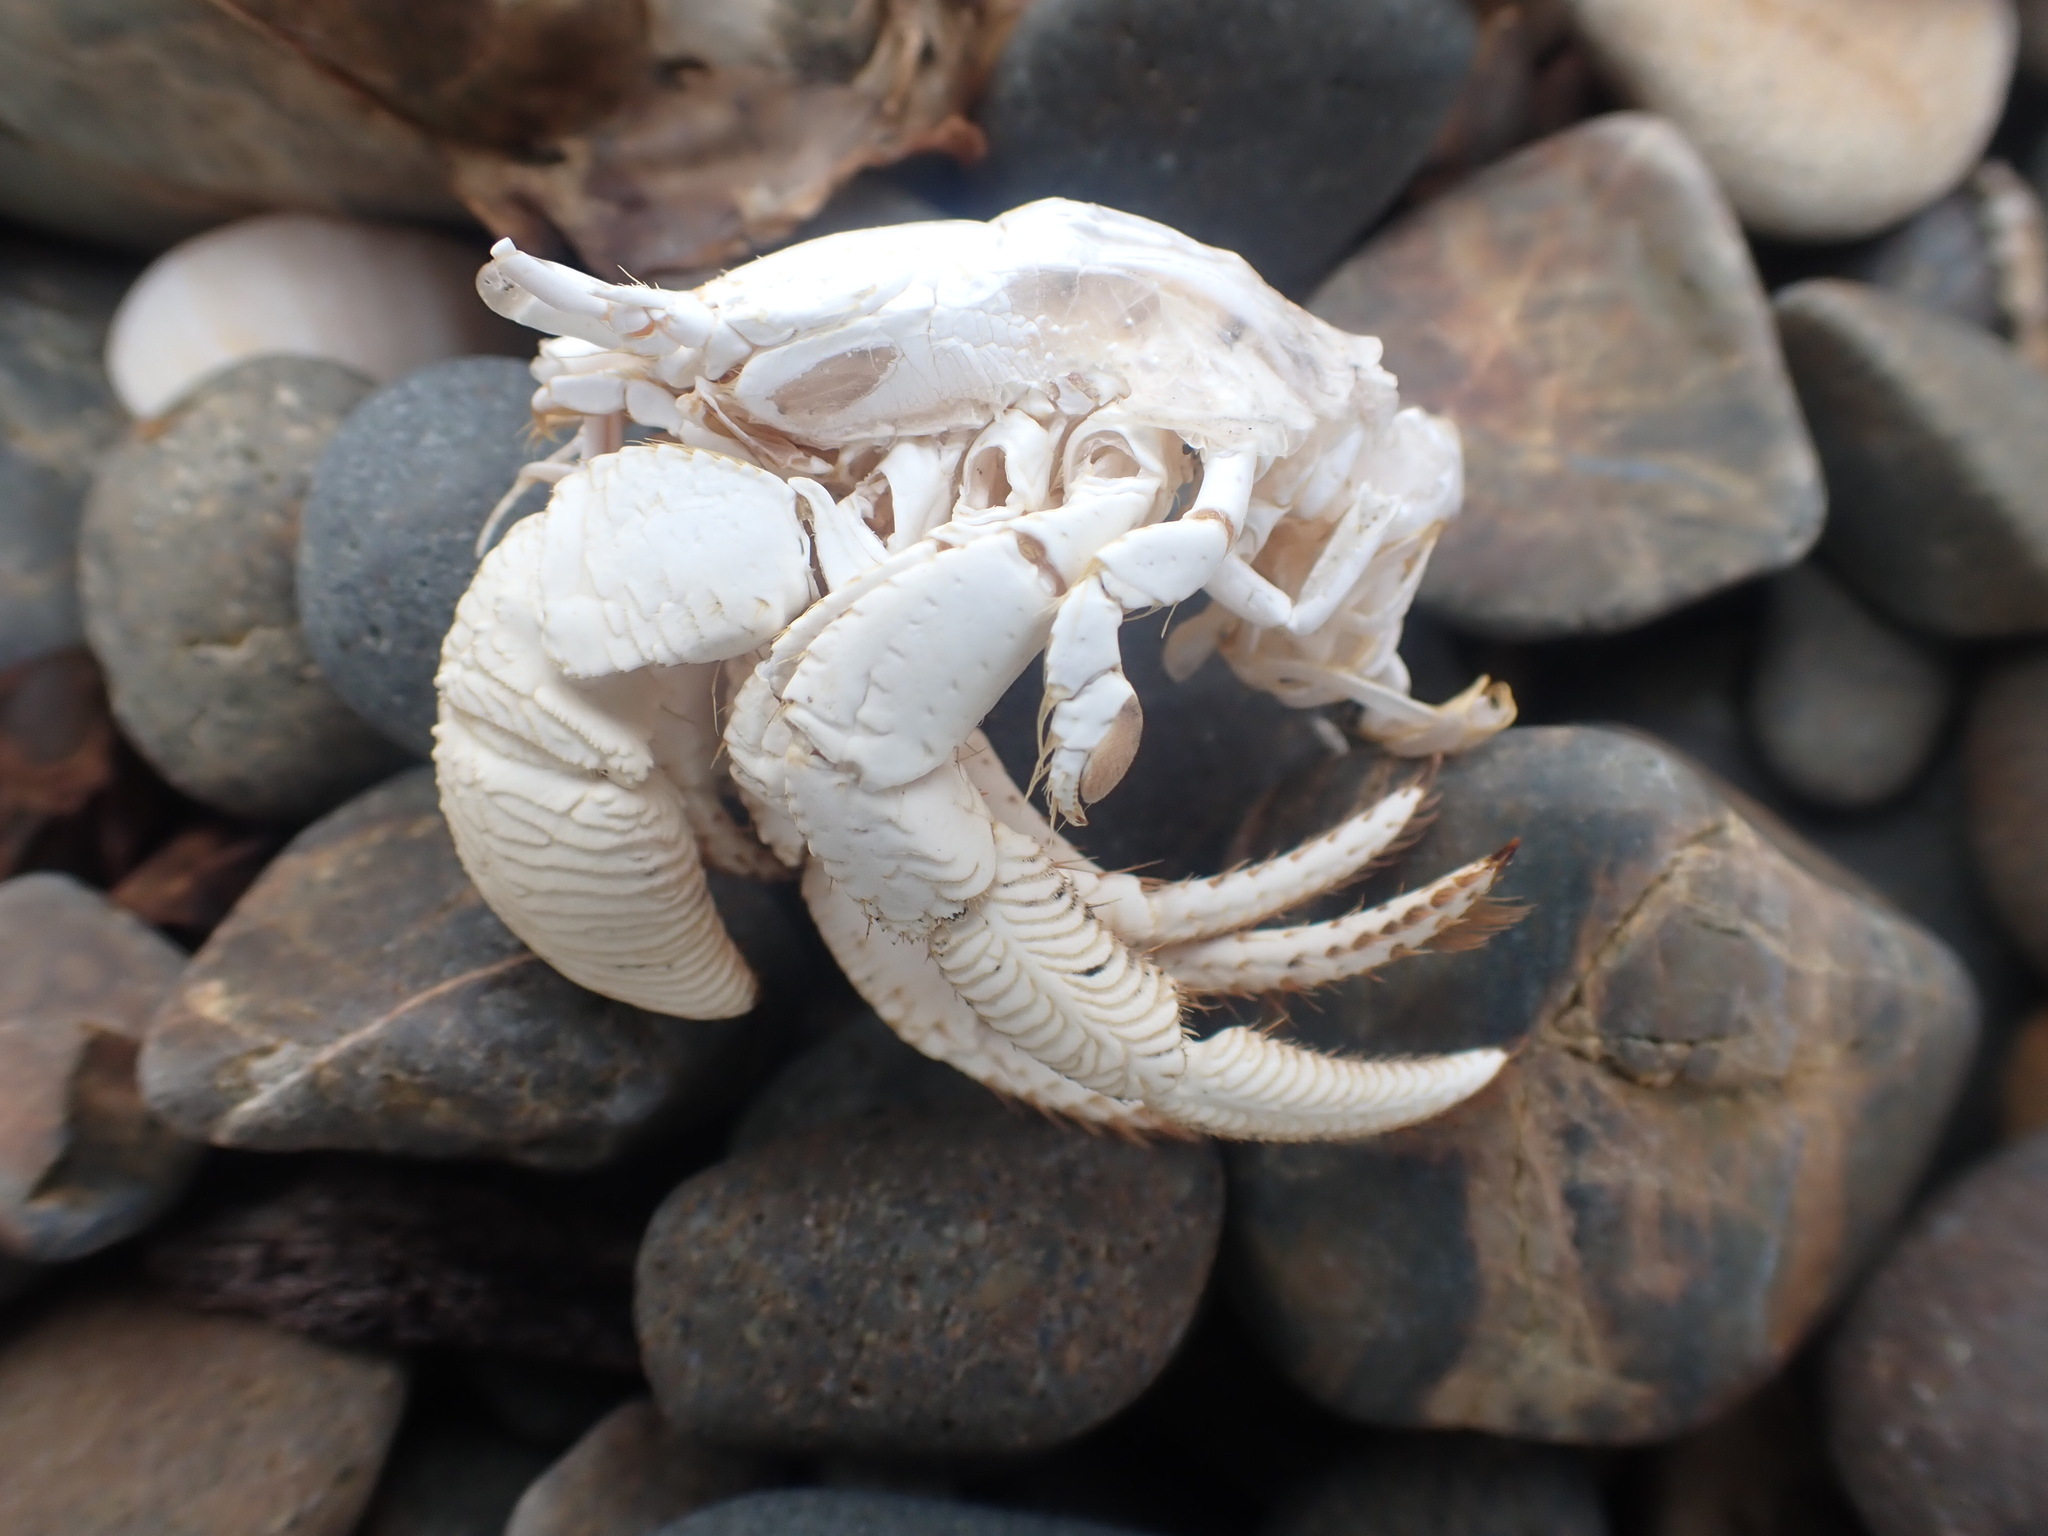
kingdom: Animalia
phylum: Arthropoda
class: Malacostraca
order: Decapoda
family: Diogenidae
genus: Dardanus
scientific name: Dardanus arrosor
